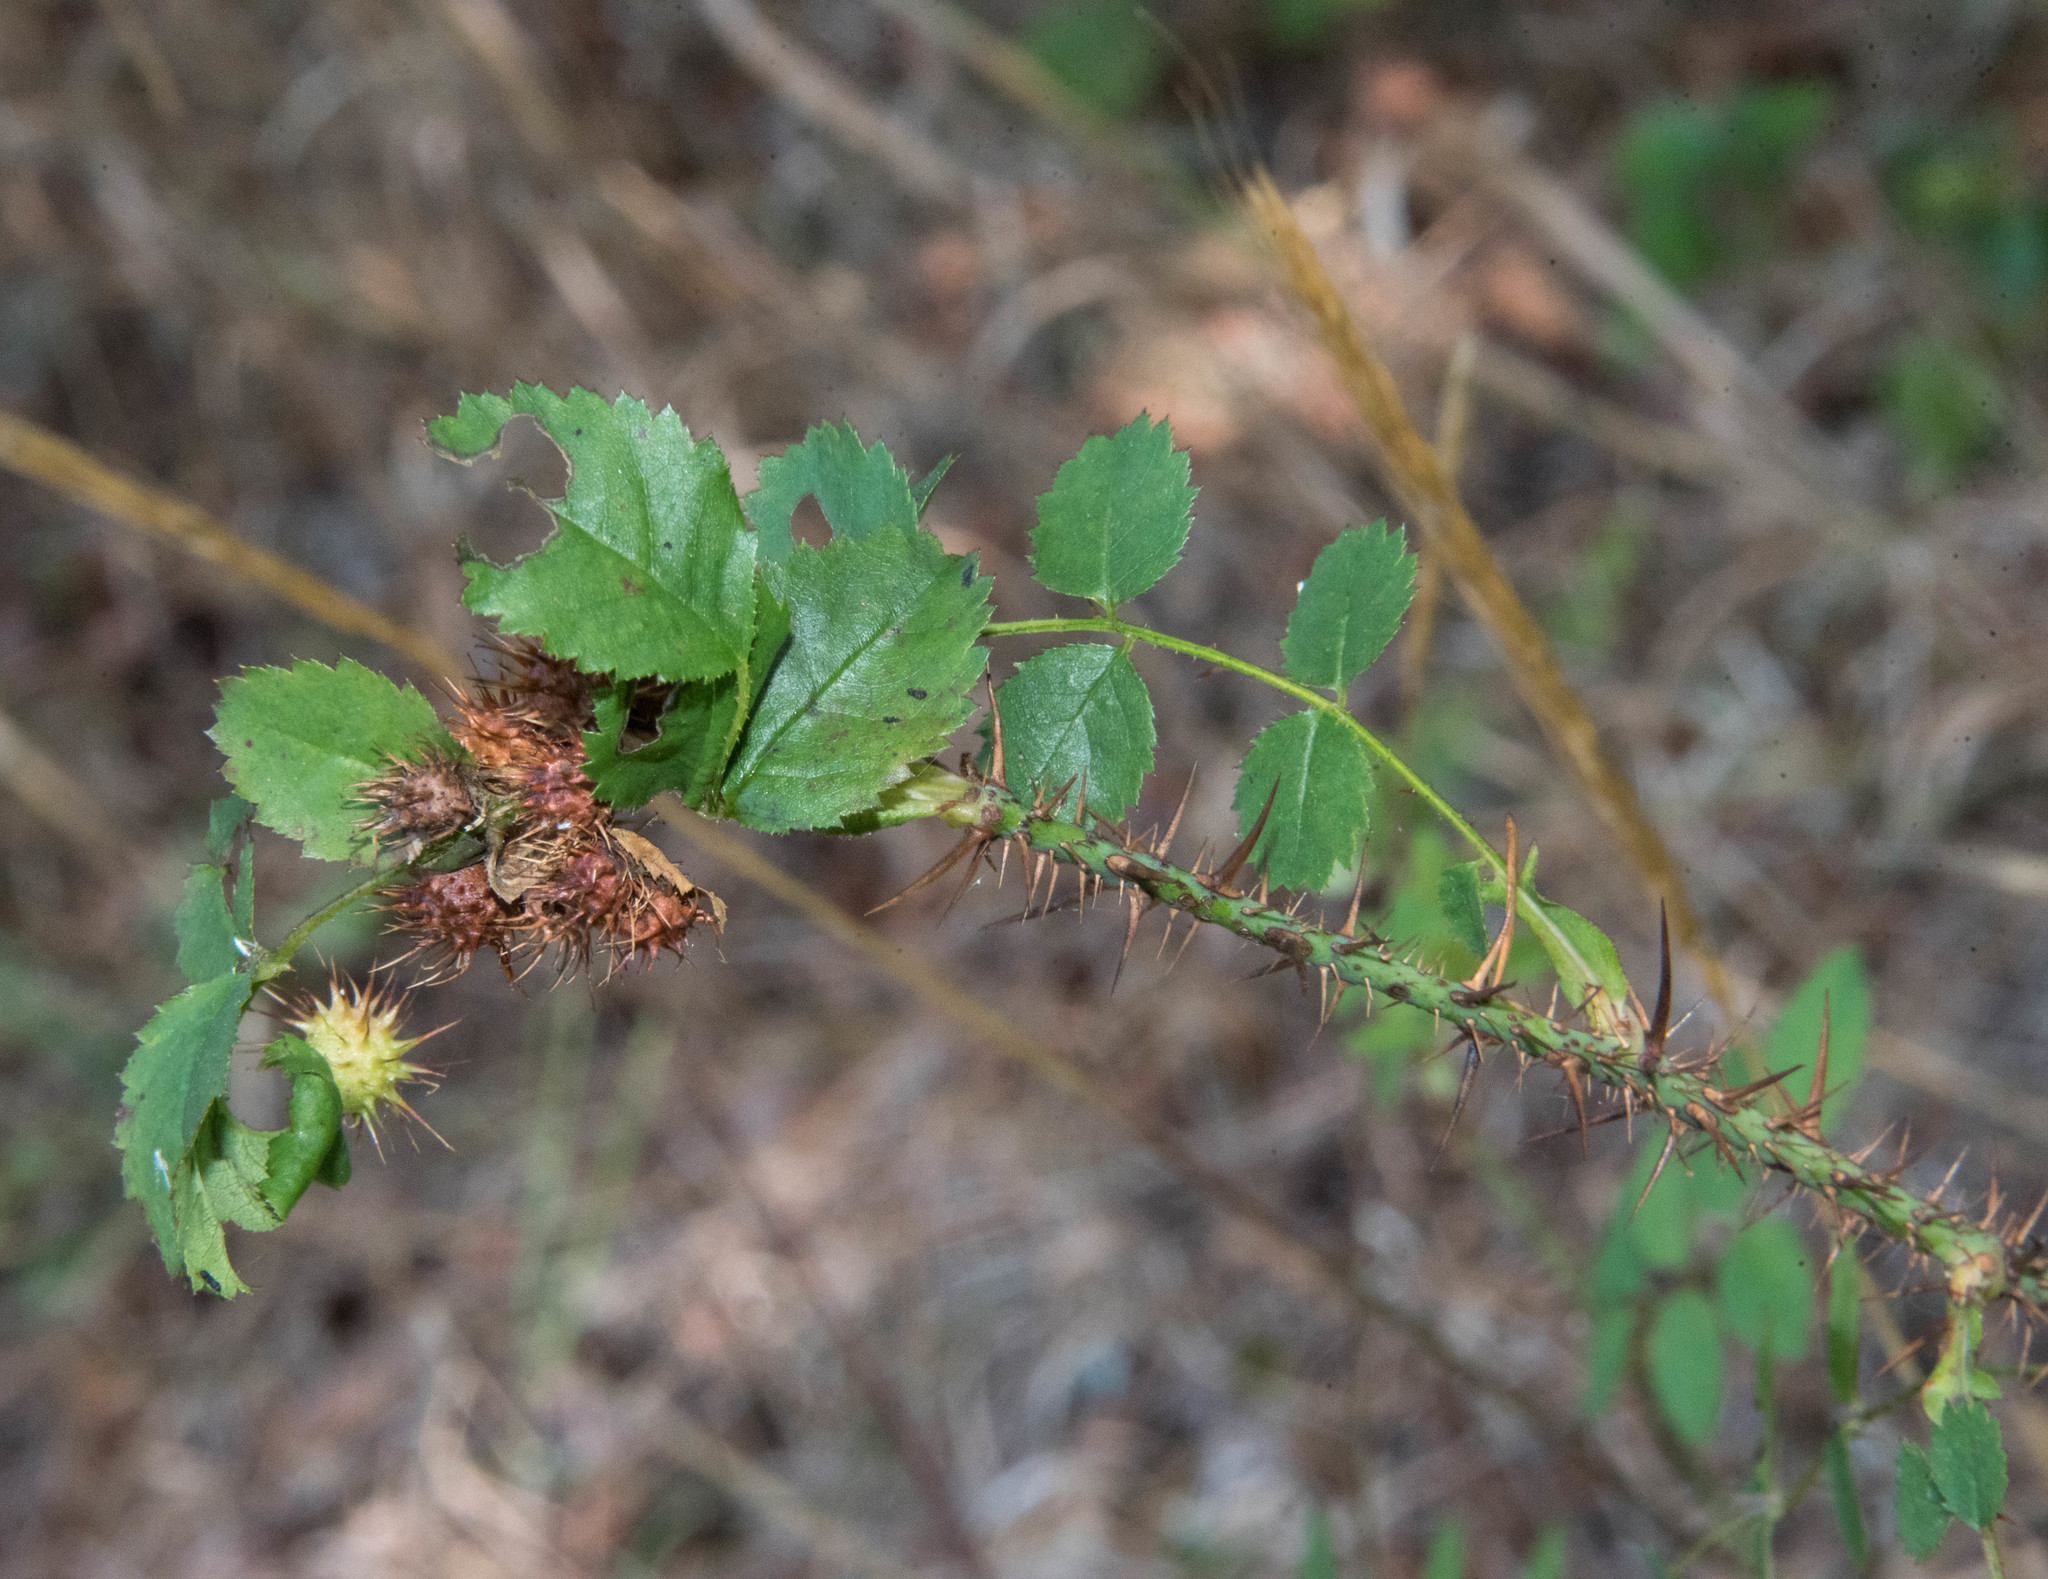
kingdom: Animalia
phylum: Arthropoda
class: Insecta
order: Hymenoptera
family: Cynipidae
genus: Diplolepis
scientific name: Diplolepis bicolor
